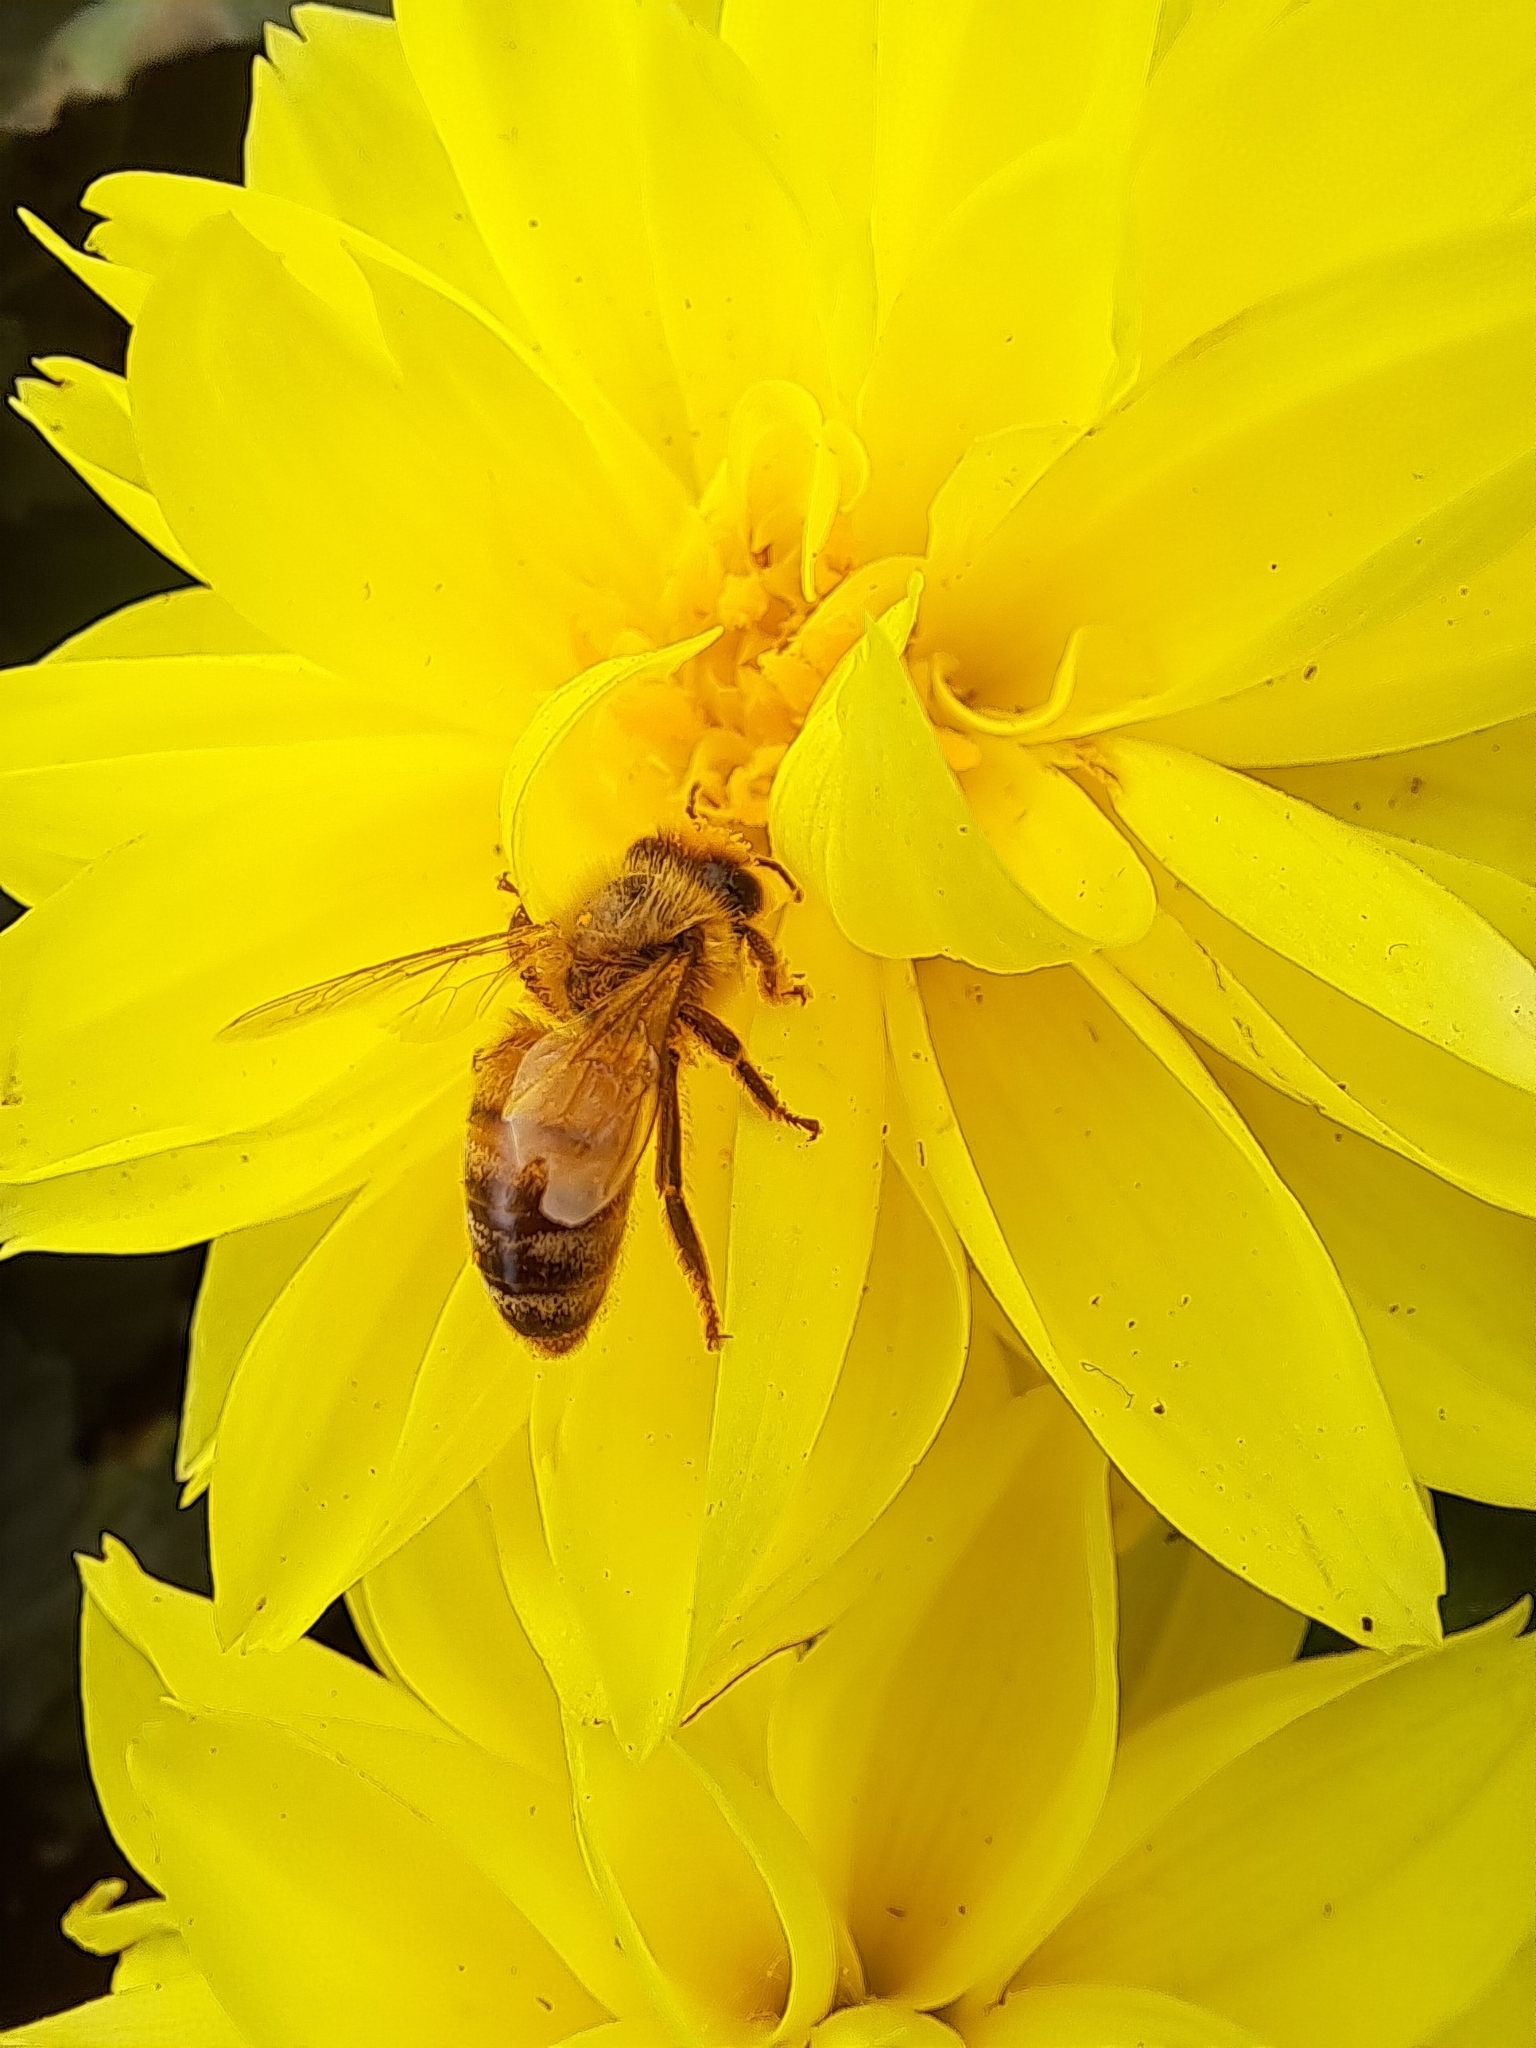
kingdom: Animalia
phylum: Arthropoda
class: Insecta
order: Hymenoptera
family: Apidae
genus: Apis
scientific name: Apis mellifera
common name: Honey bee
